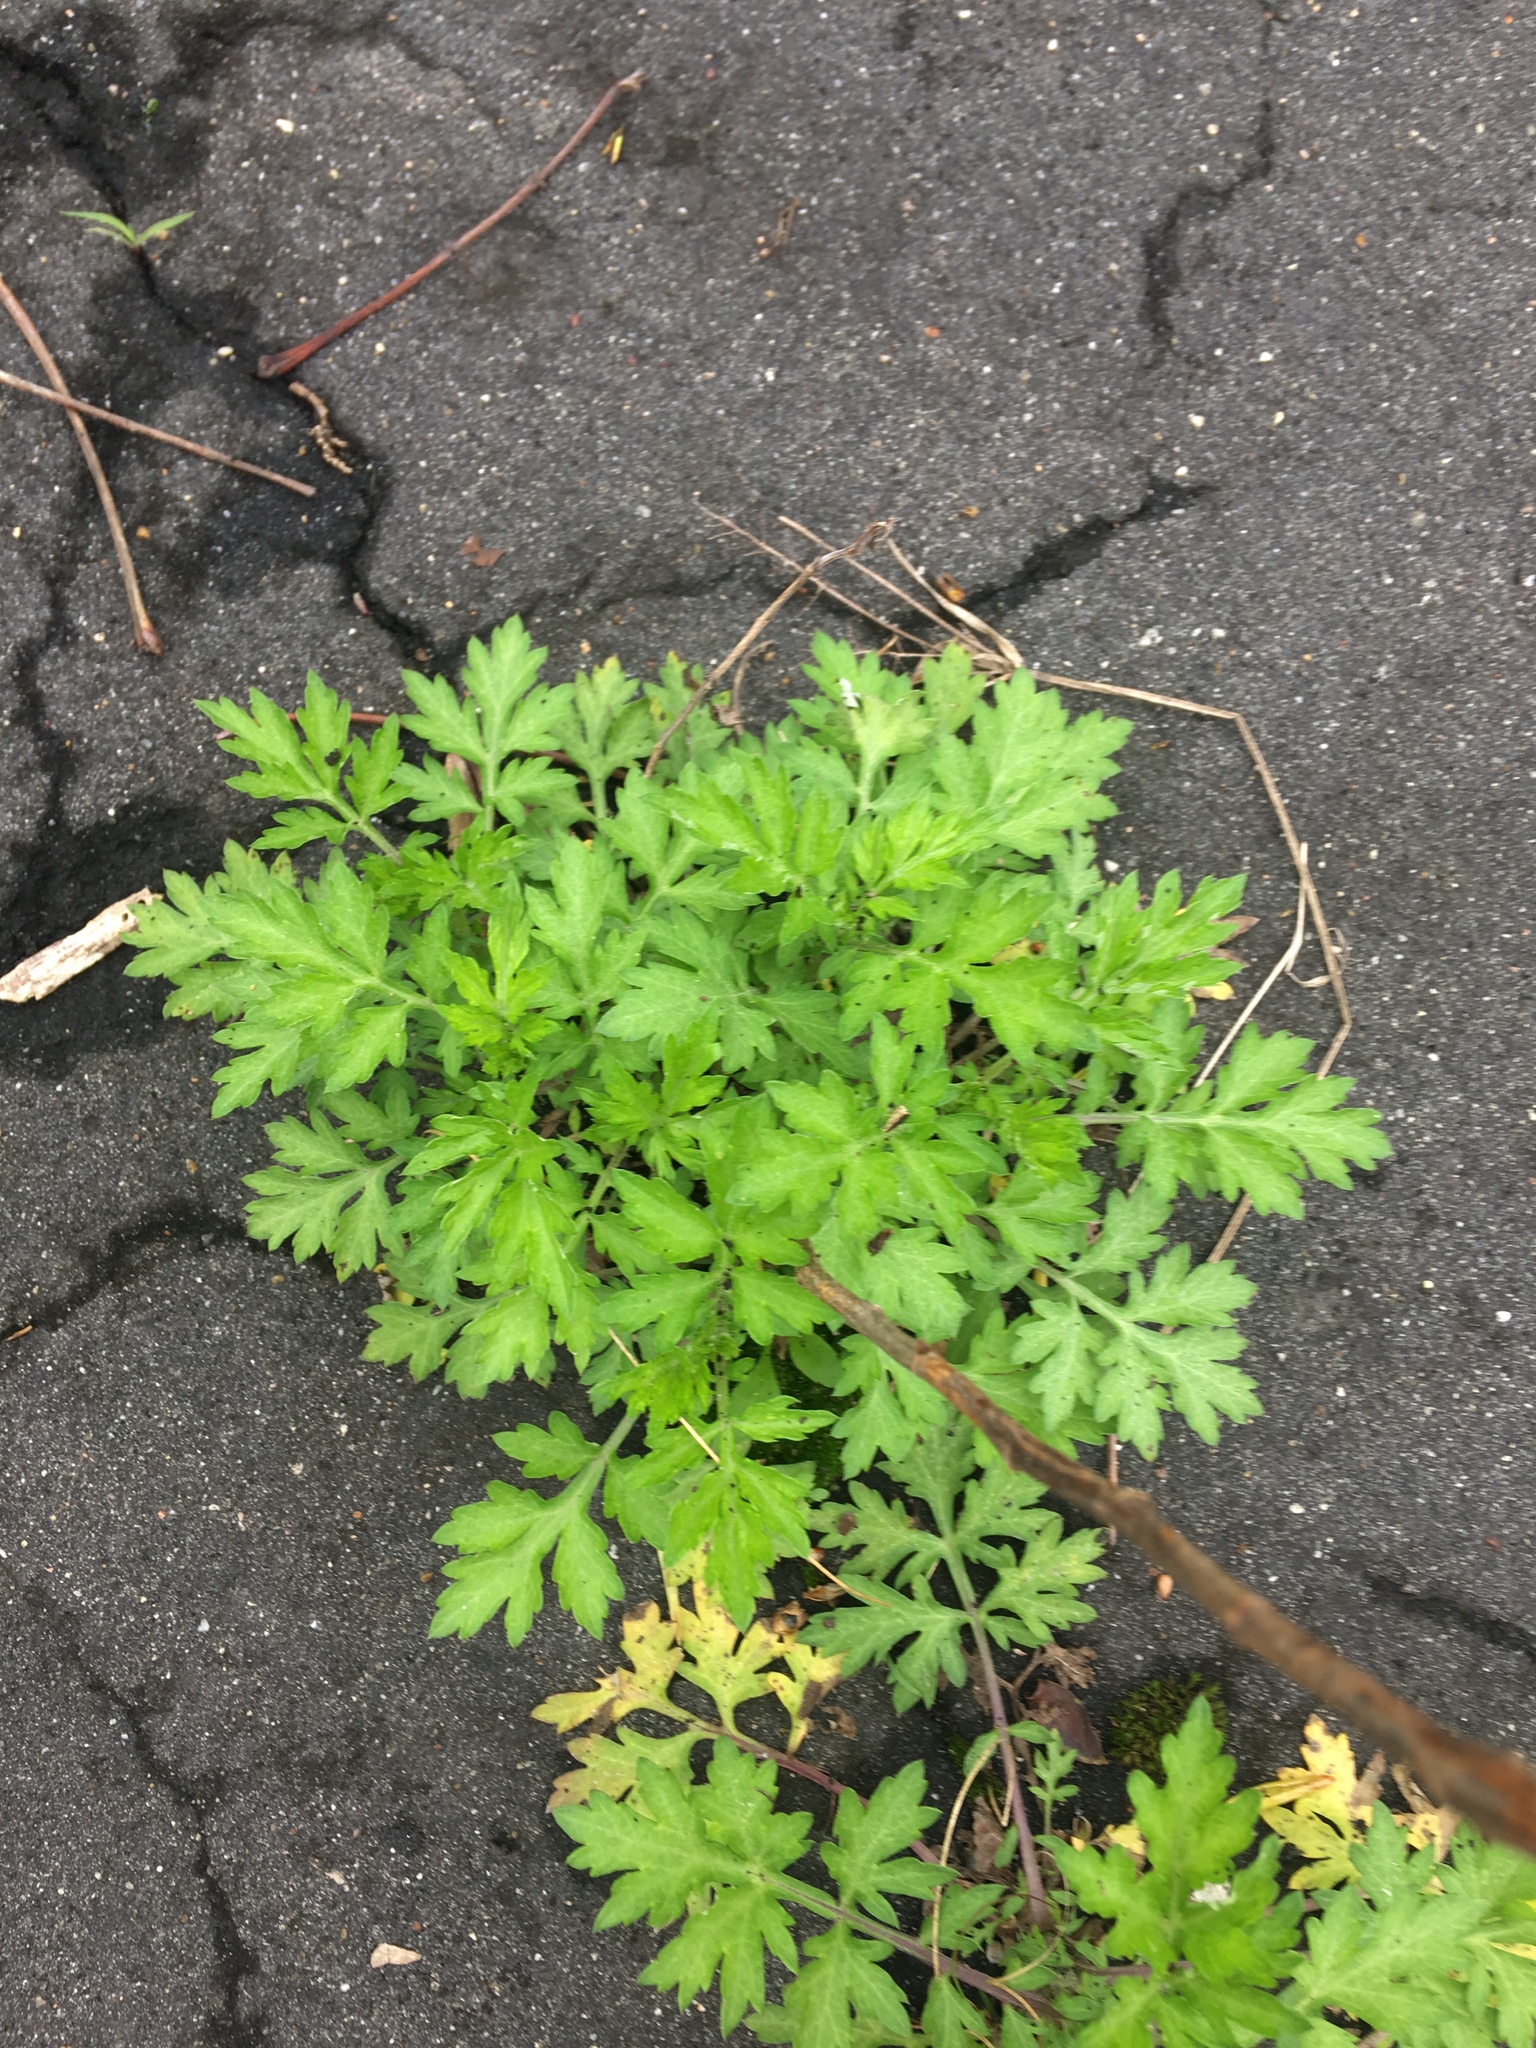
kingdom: Plantae
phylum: Tracheophyta
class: Magnoliopsida
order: Asterales
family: Asteraceae
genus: Artemisia
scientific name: Artemisia vulgaris
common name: Mugwort
